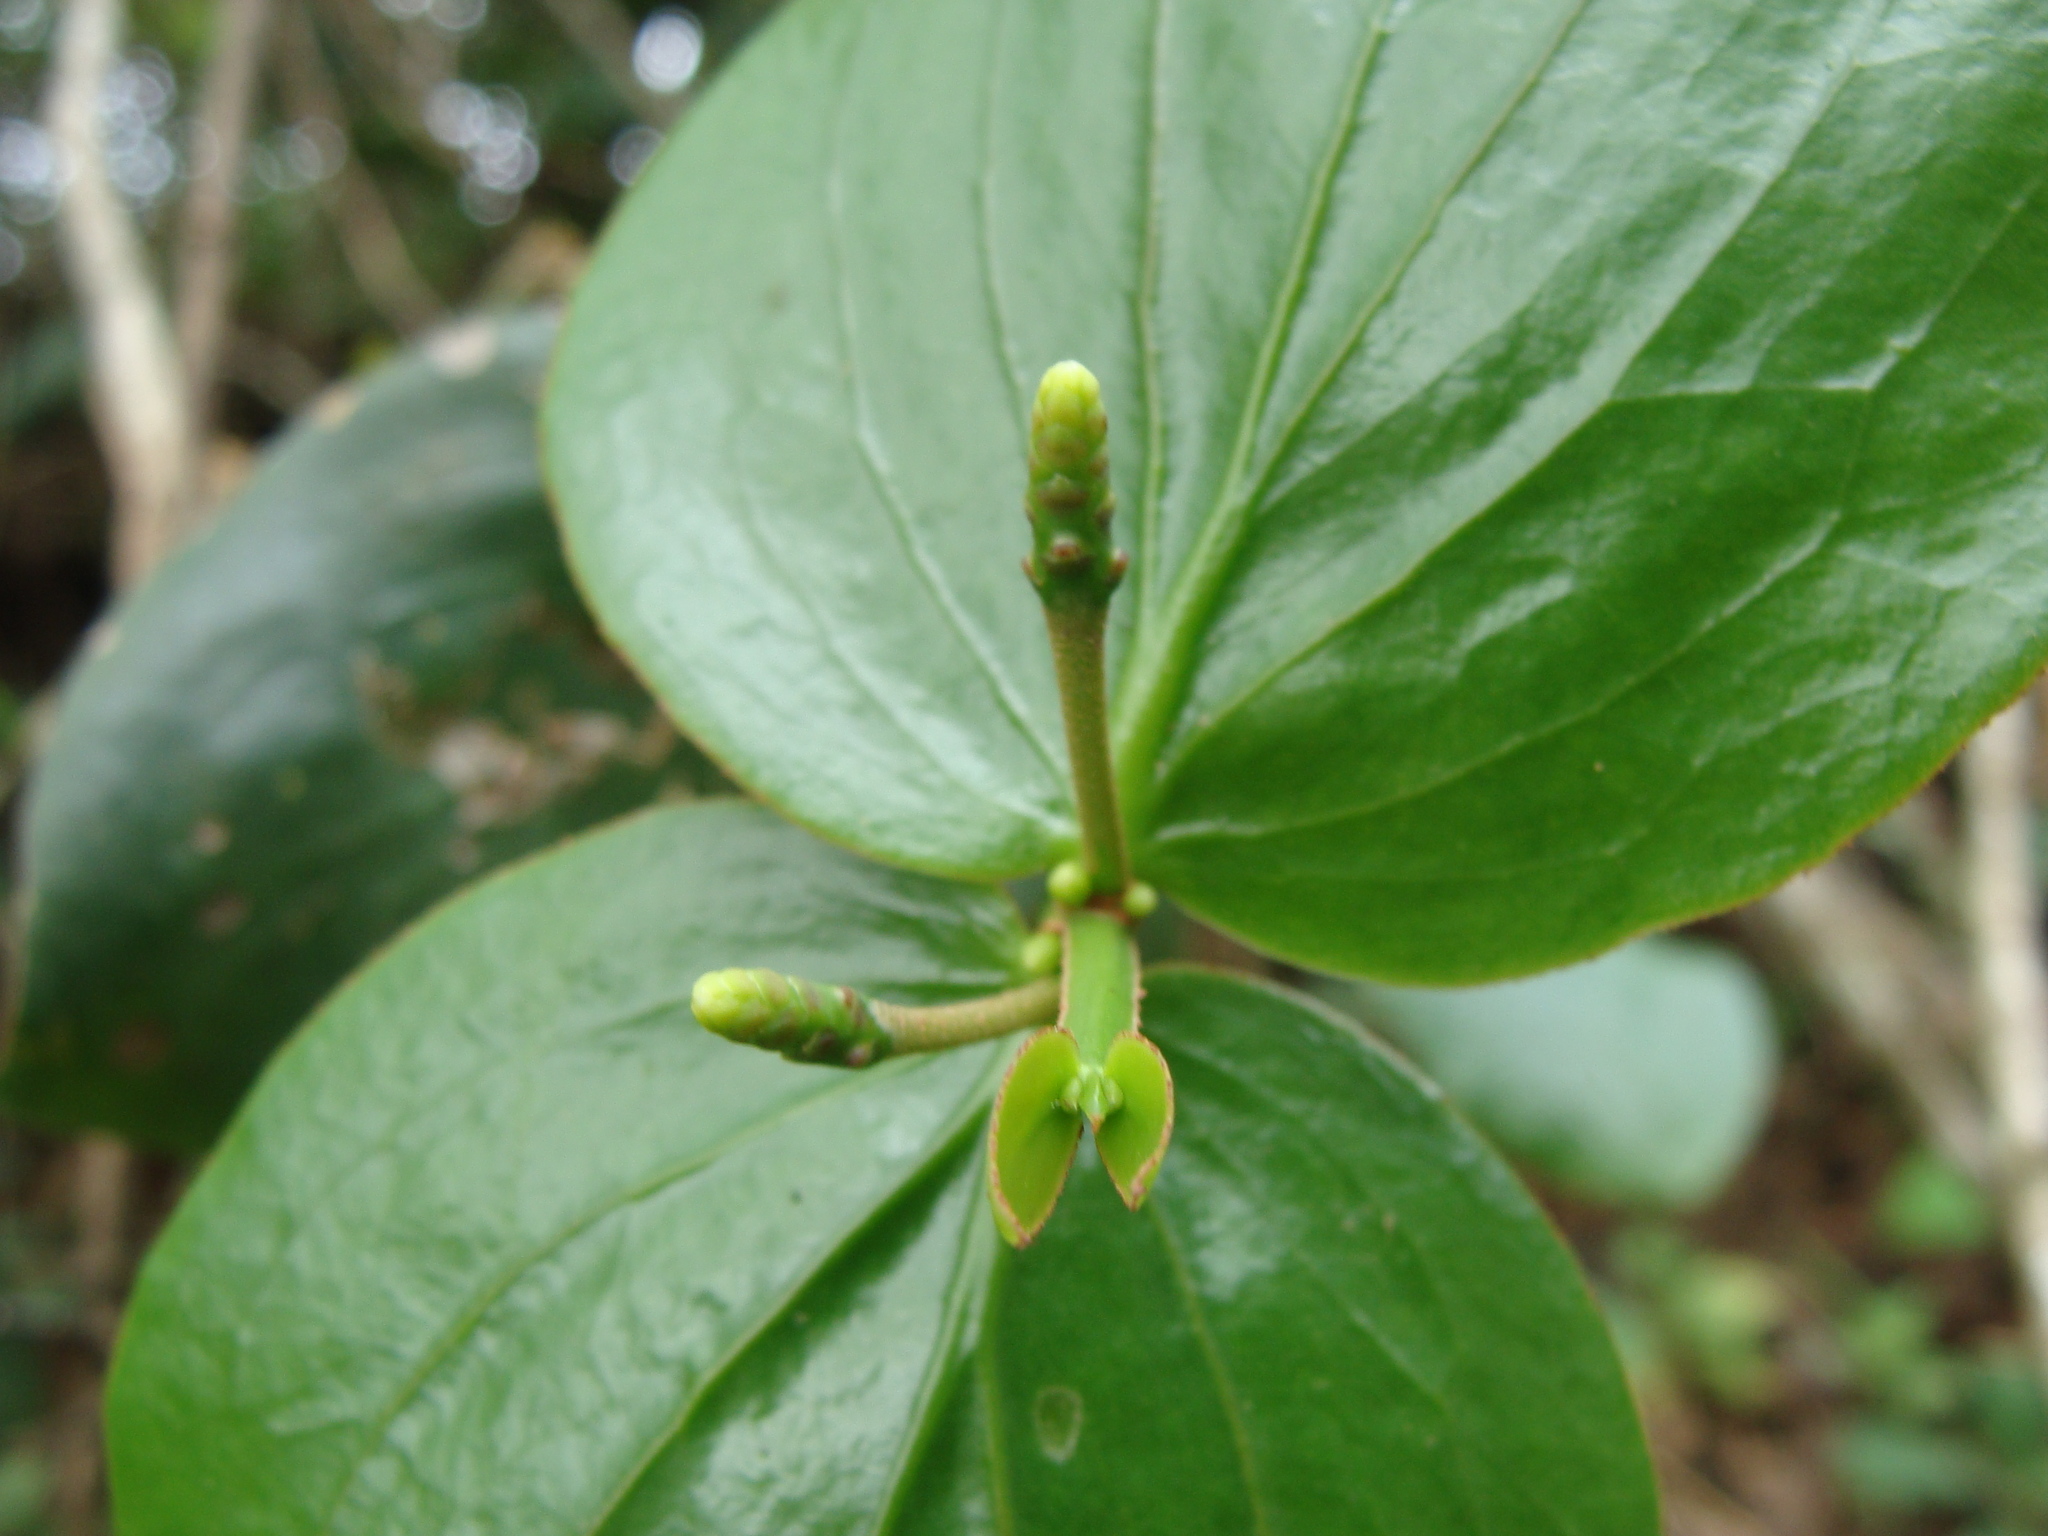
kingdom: Plantae
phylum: Tracheophyta
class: Magnoliopsida
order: Santalales
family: Loranthaceae
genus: Oryctanthus
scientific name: Oryctanthus cordifolius
